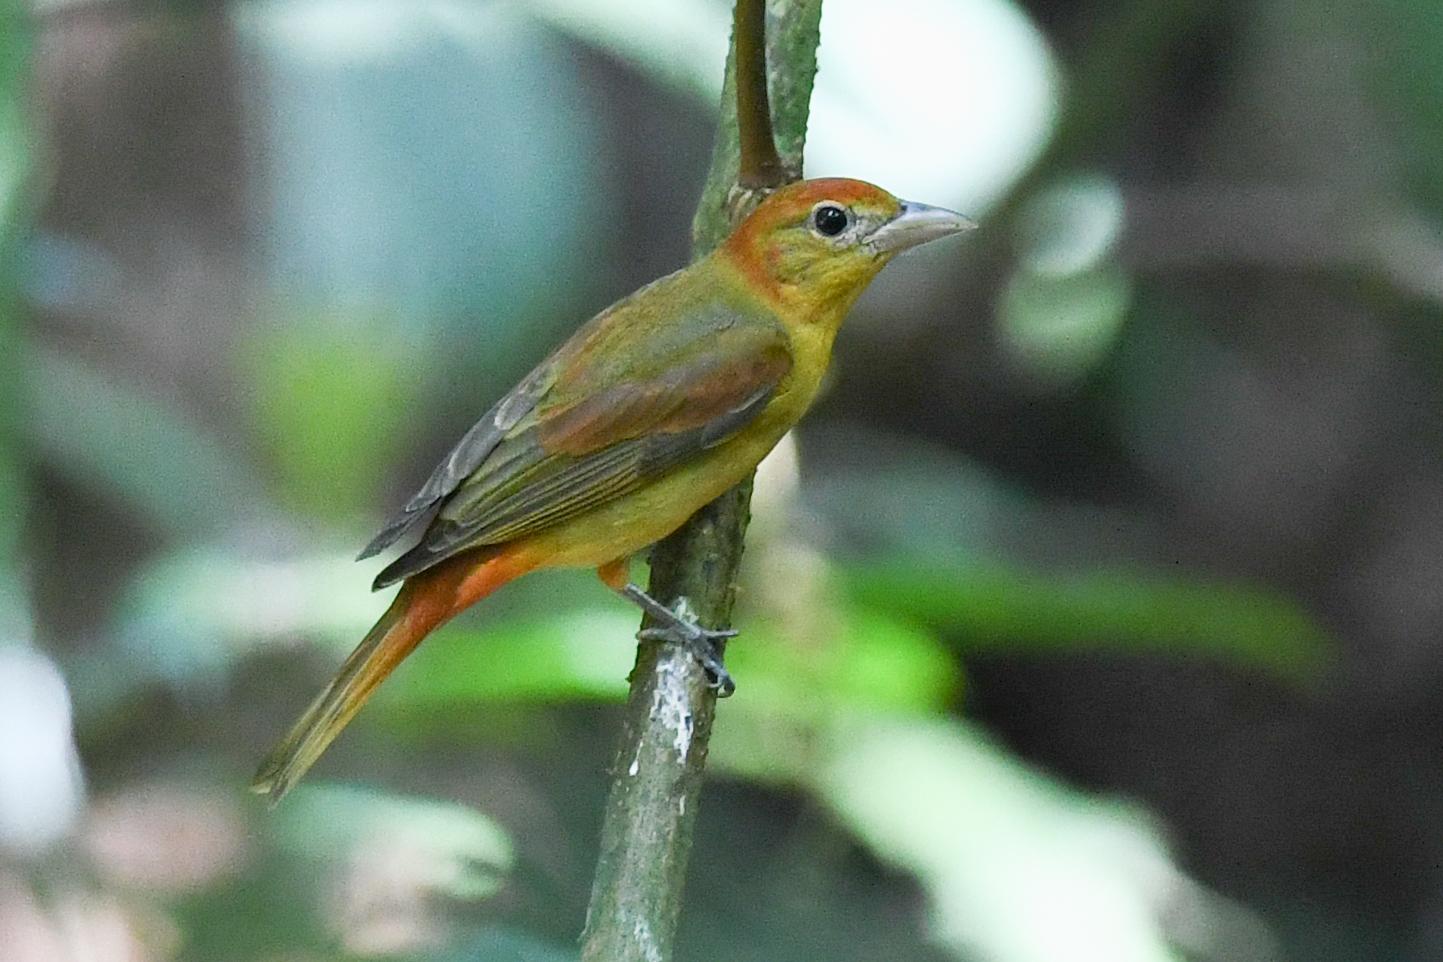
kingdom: Animalia
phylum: Chordata
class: Aves
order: Passeriformes
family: Cardinalidae
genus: Piranga
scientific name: Piranga rubra
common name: Summer tanager
